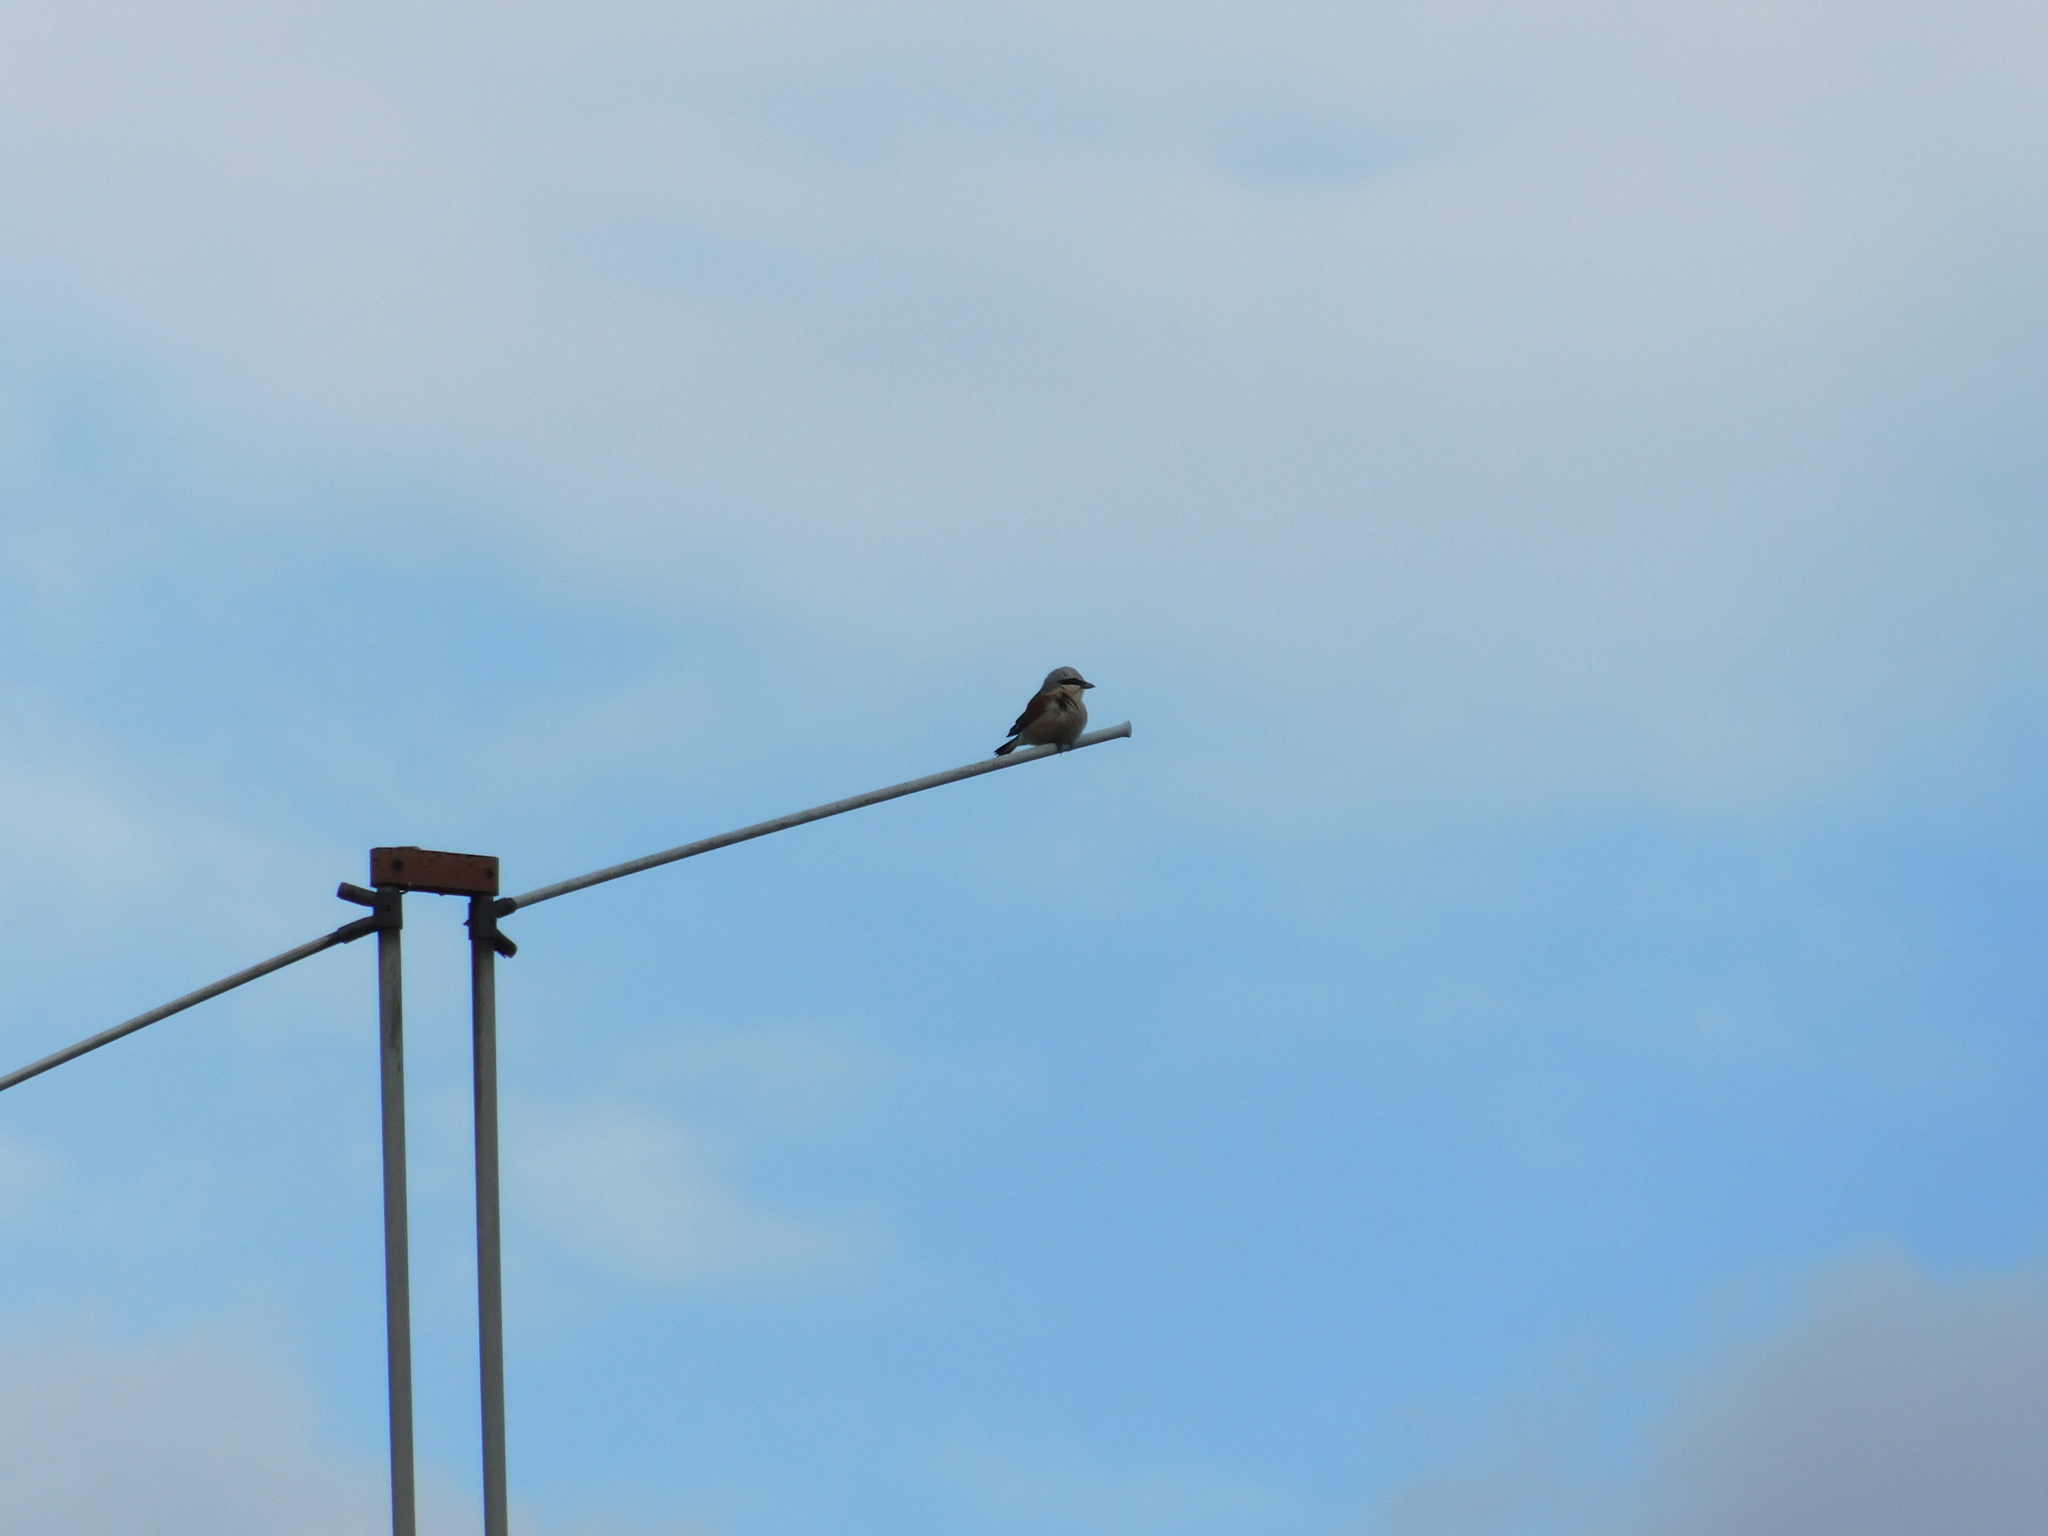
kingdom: Animalia
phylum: Chordata
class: Aves
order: Passeriformes
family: Laniidae
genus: Lanius
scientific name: Lanius collurio
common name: Red-backed shrike
